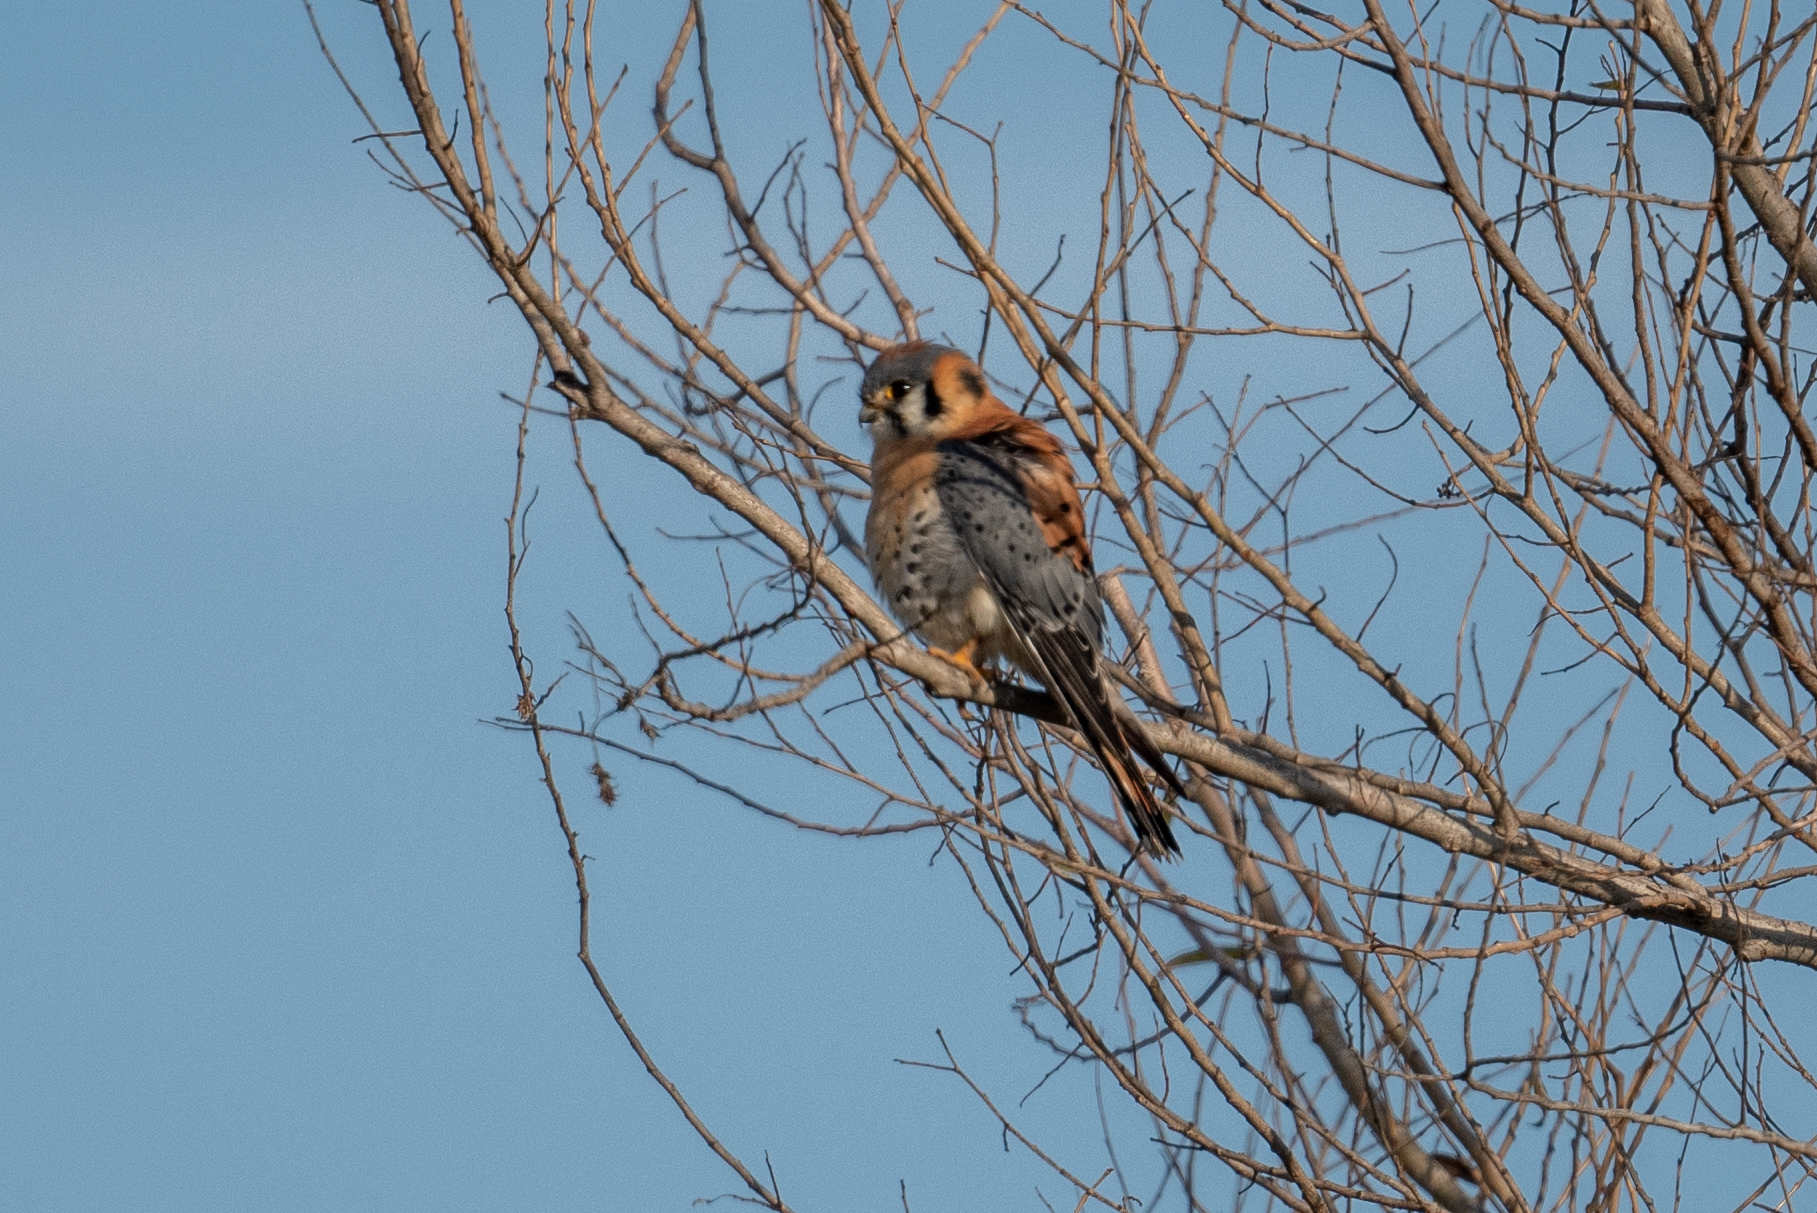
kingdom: Animalia
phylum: Chordata
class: Aves
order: Falconiformes
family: Falconidae
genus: Falco
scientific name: Falco sparverius
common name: American kestrel
